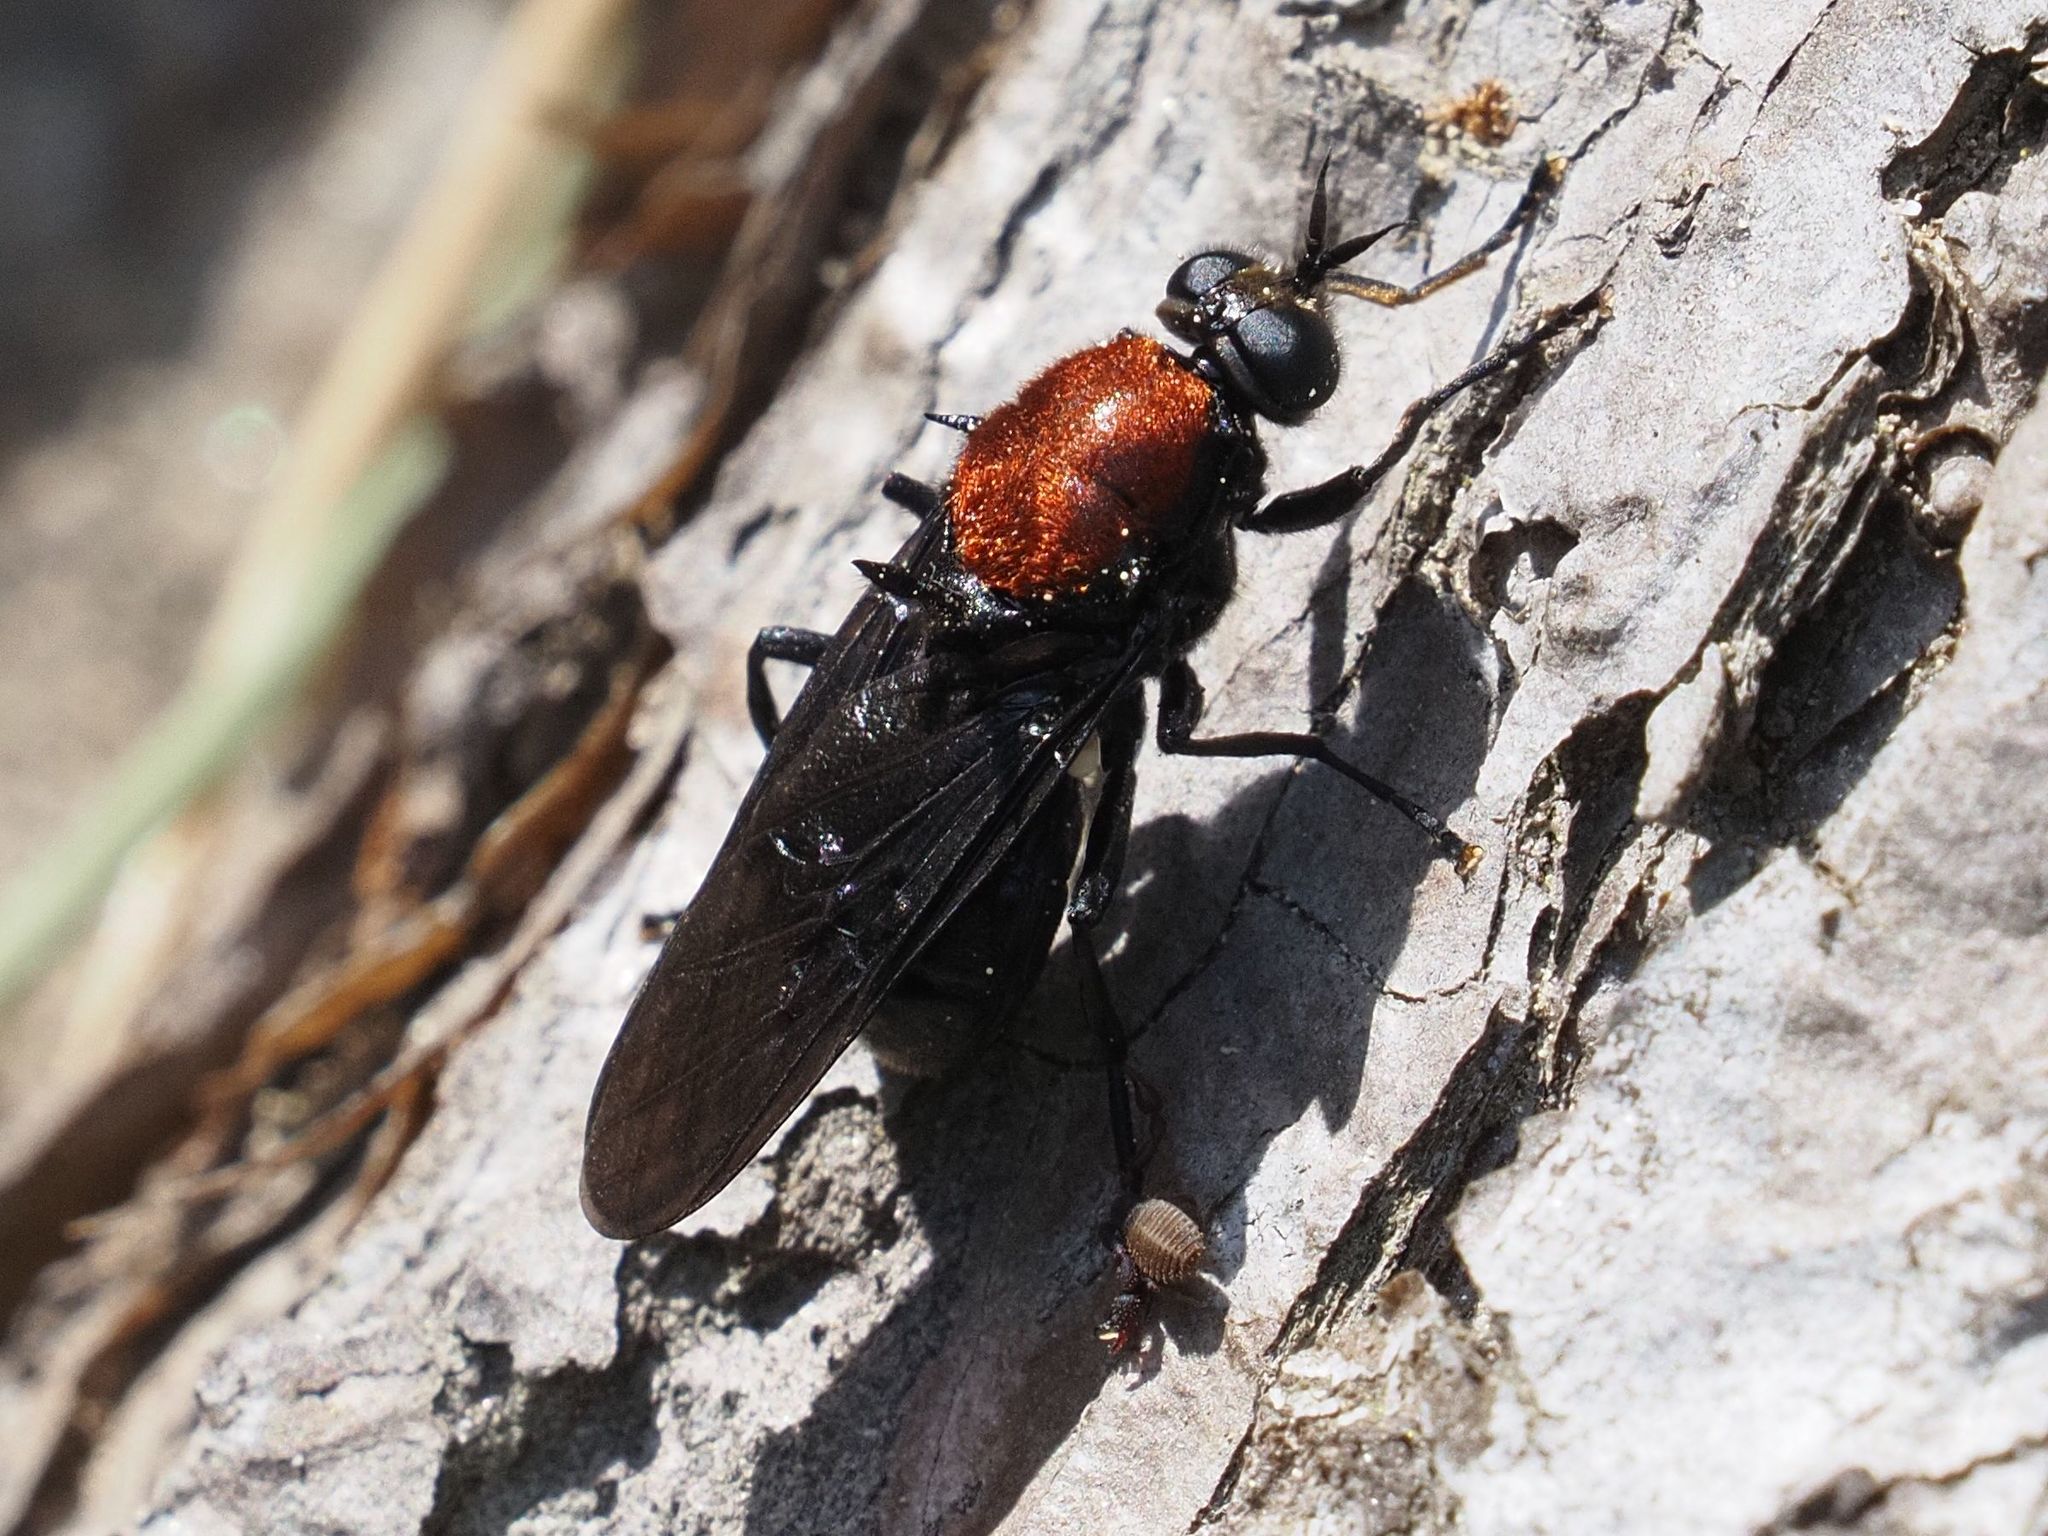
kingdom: Animalia
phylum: Arthropoda
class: Insecta
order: Diptera
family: Stratiomyidae
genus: Clitellaria
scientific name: Clitellaria ephippium
